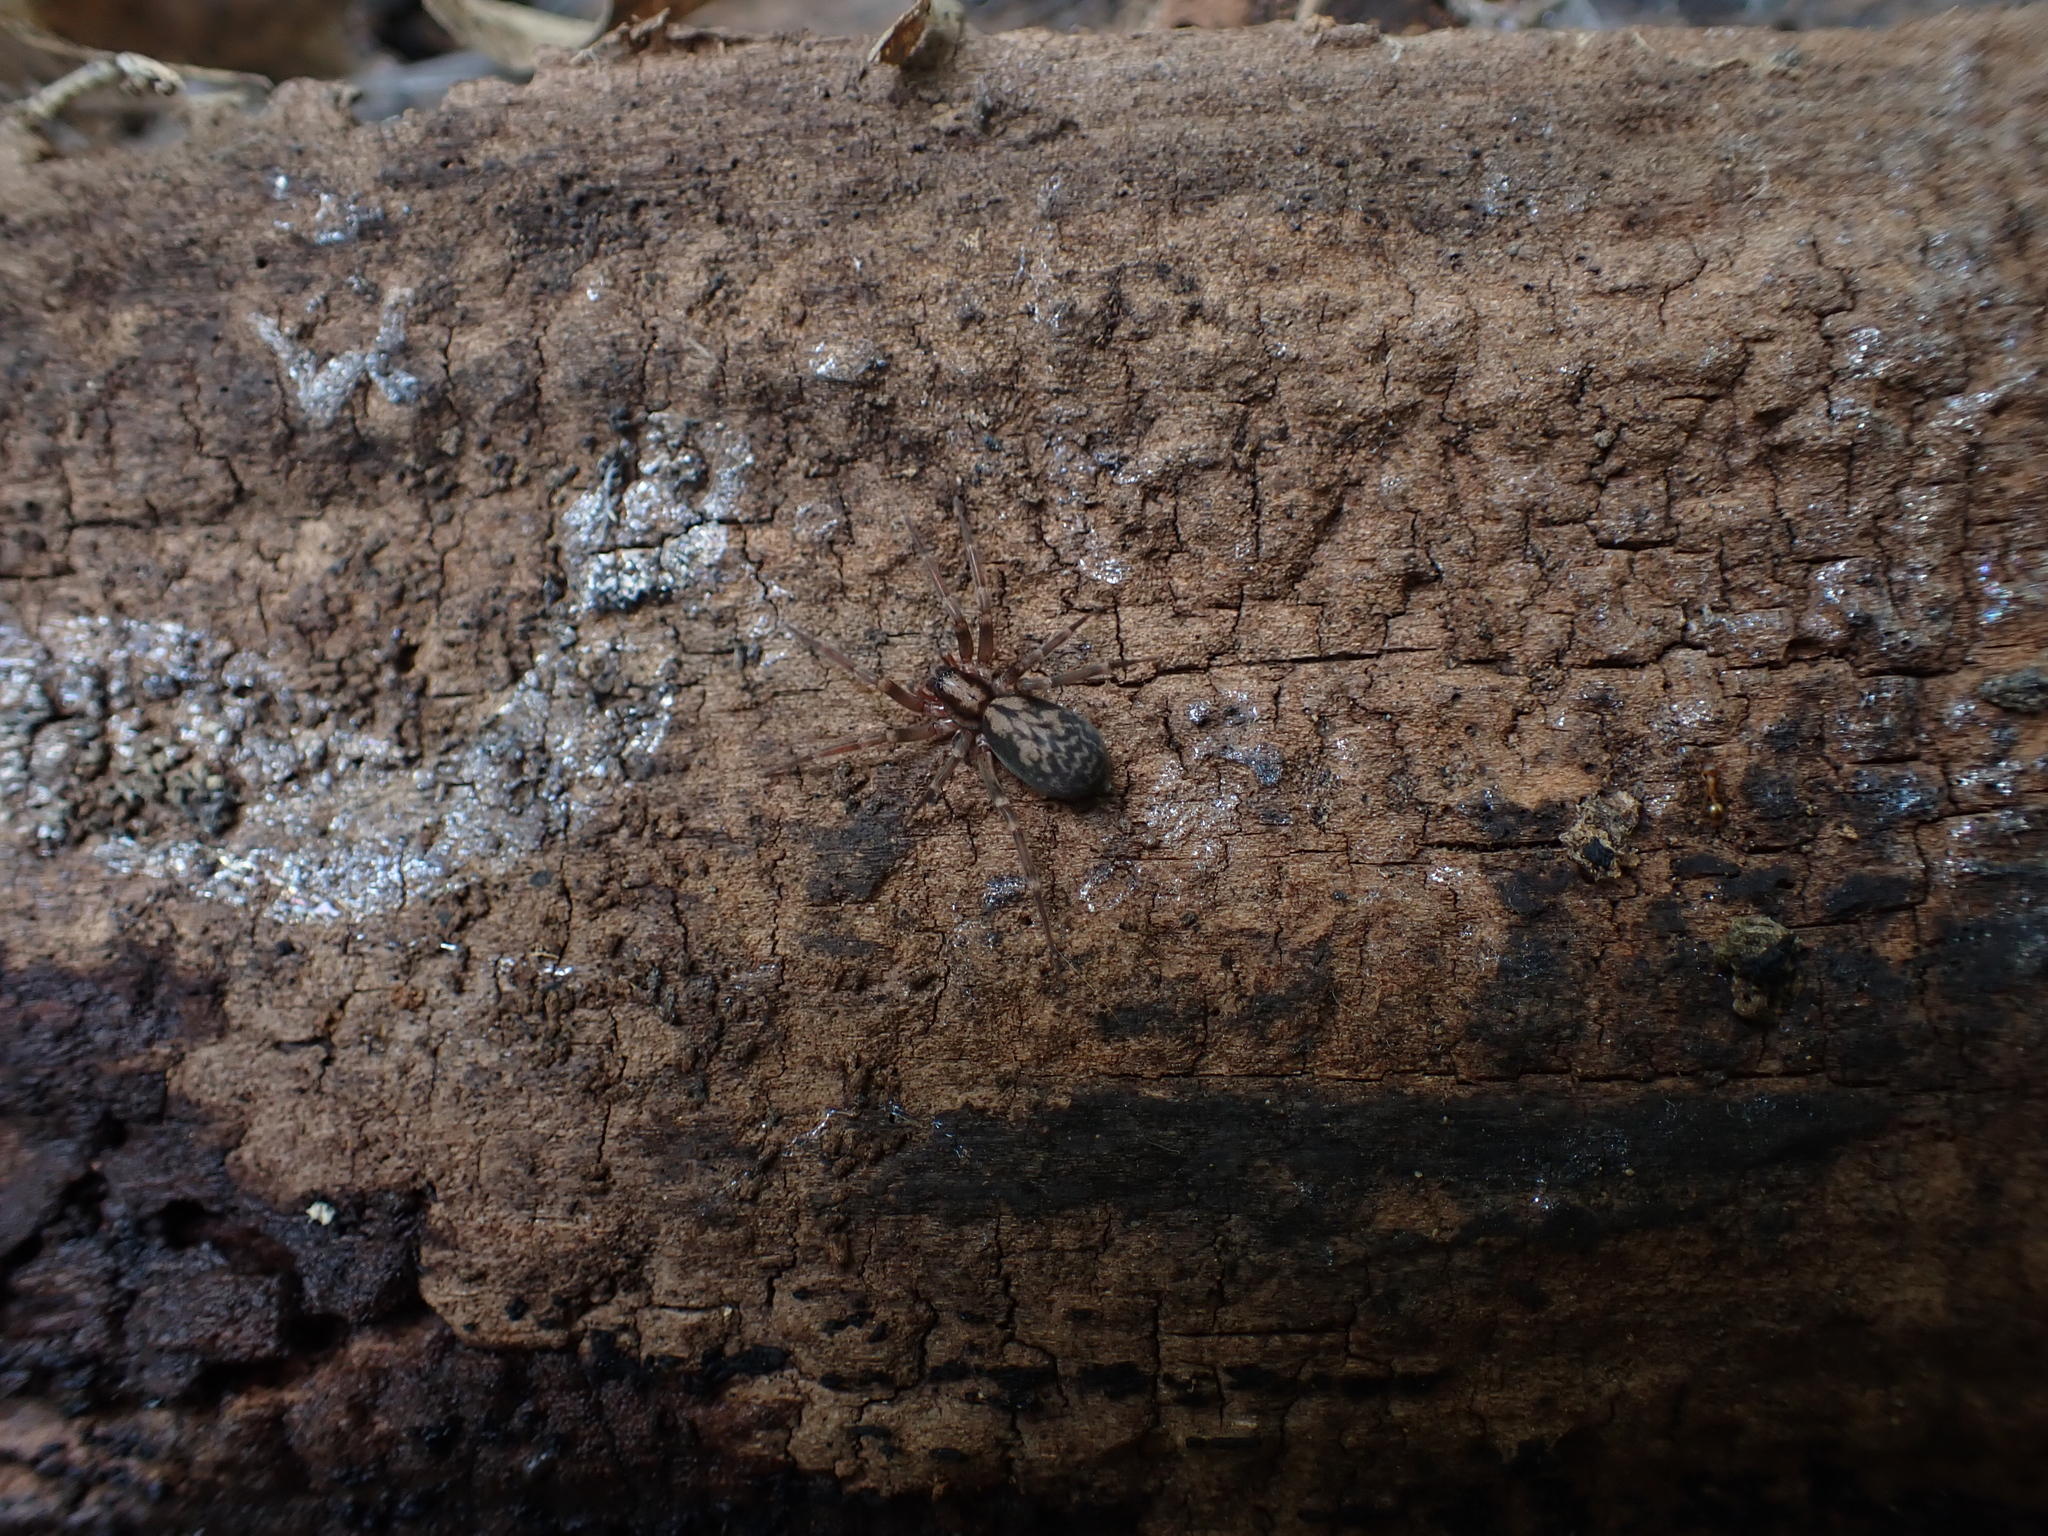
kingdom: Animalia
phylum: Arthropoda
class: Arachnida
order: Araneae
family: Liocranidae
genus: Liocranum
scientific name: Liocranum rupicola
